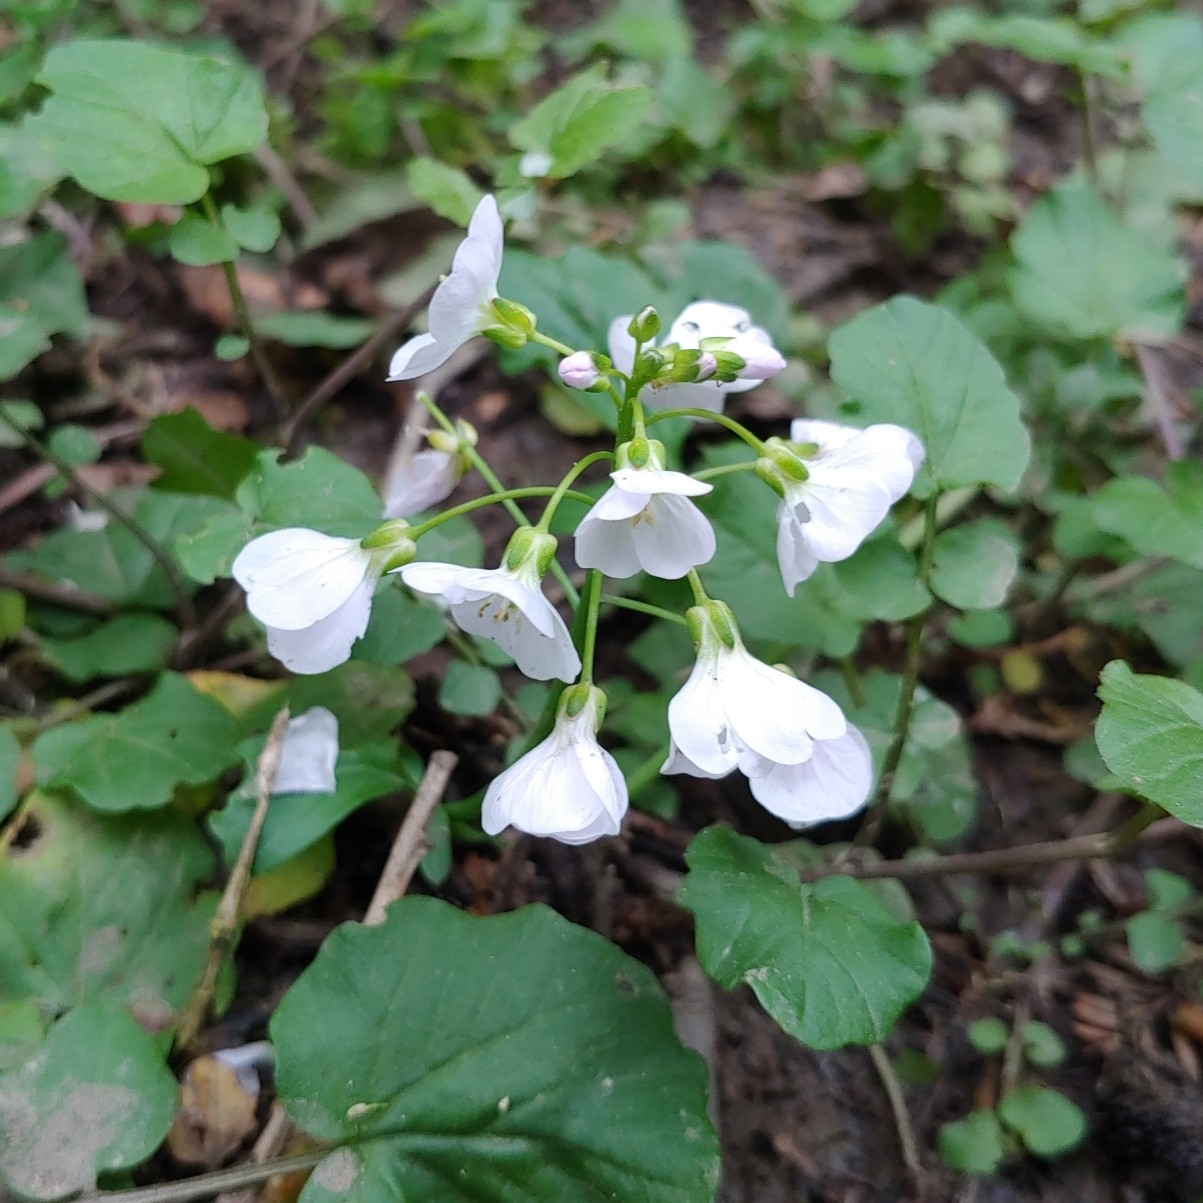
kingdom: Plantae
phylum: Tracheophyta
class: Magnoliopsida
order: Brassicales
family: Brassicaceae
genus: Cardamine
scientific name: Cardamine tenera
